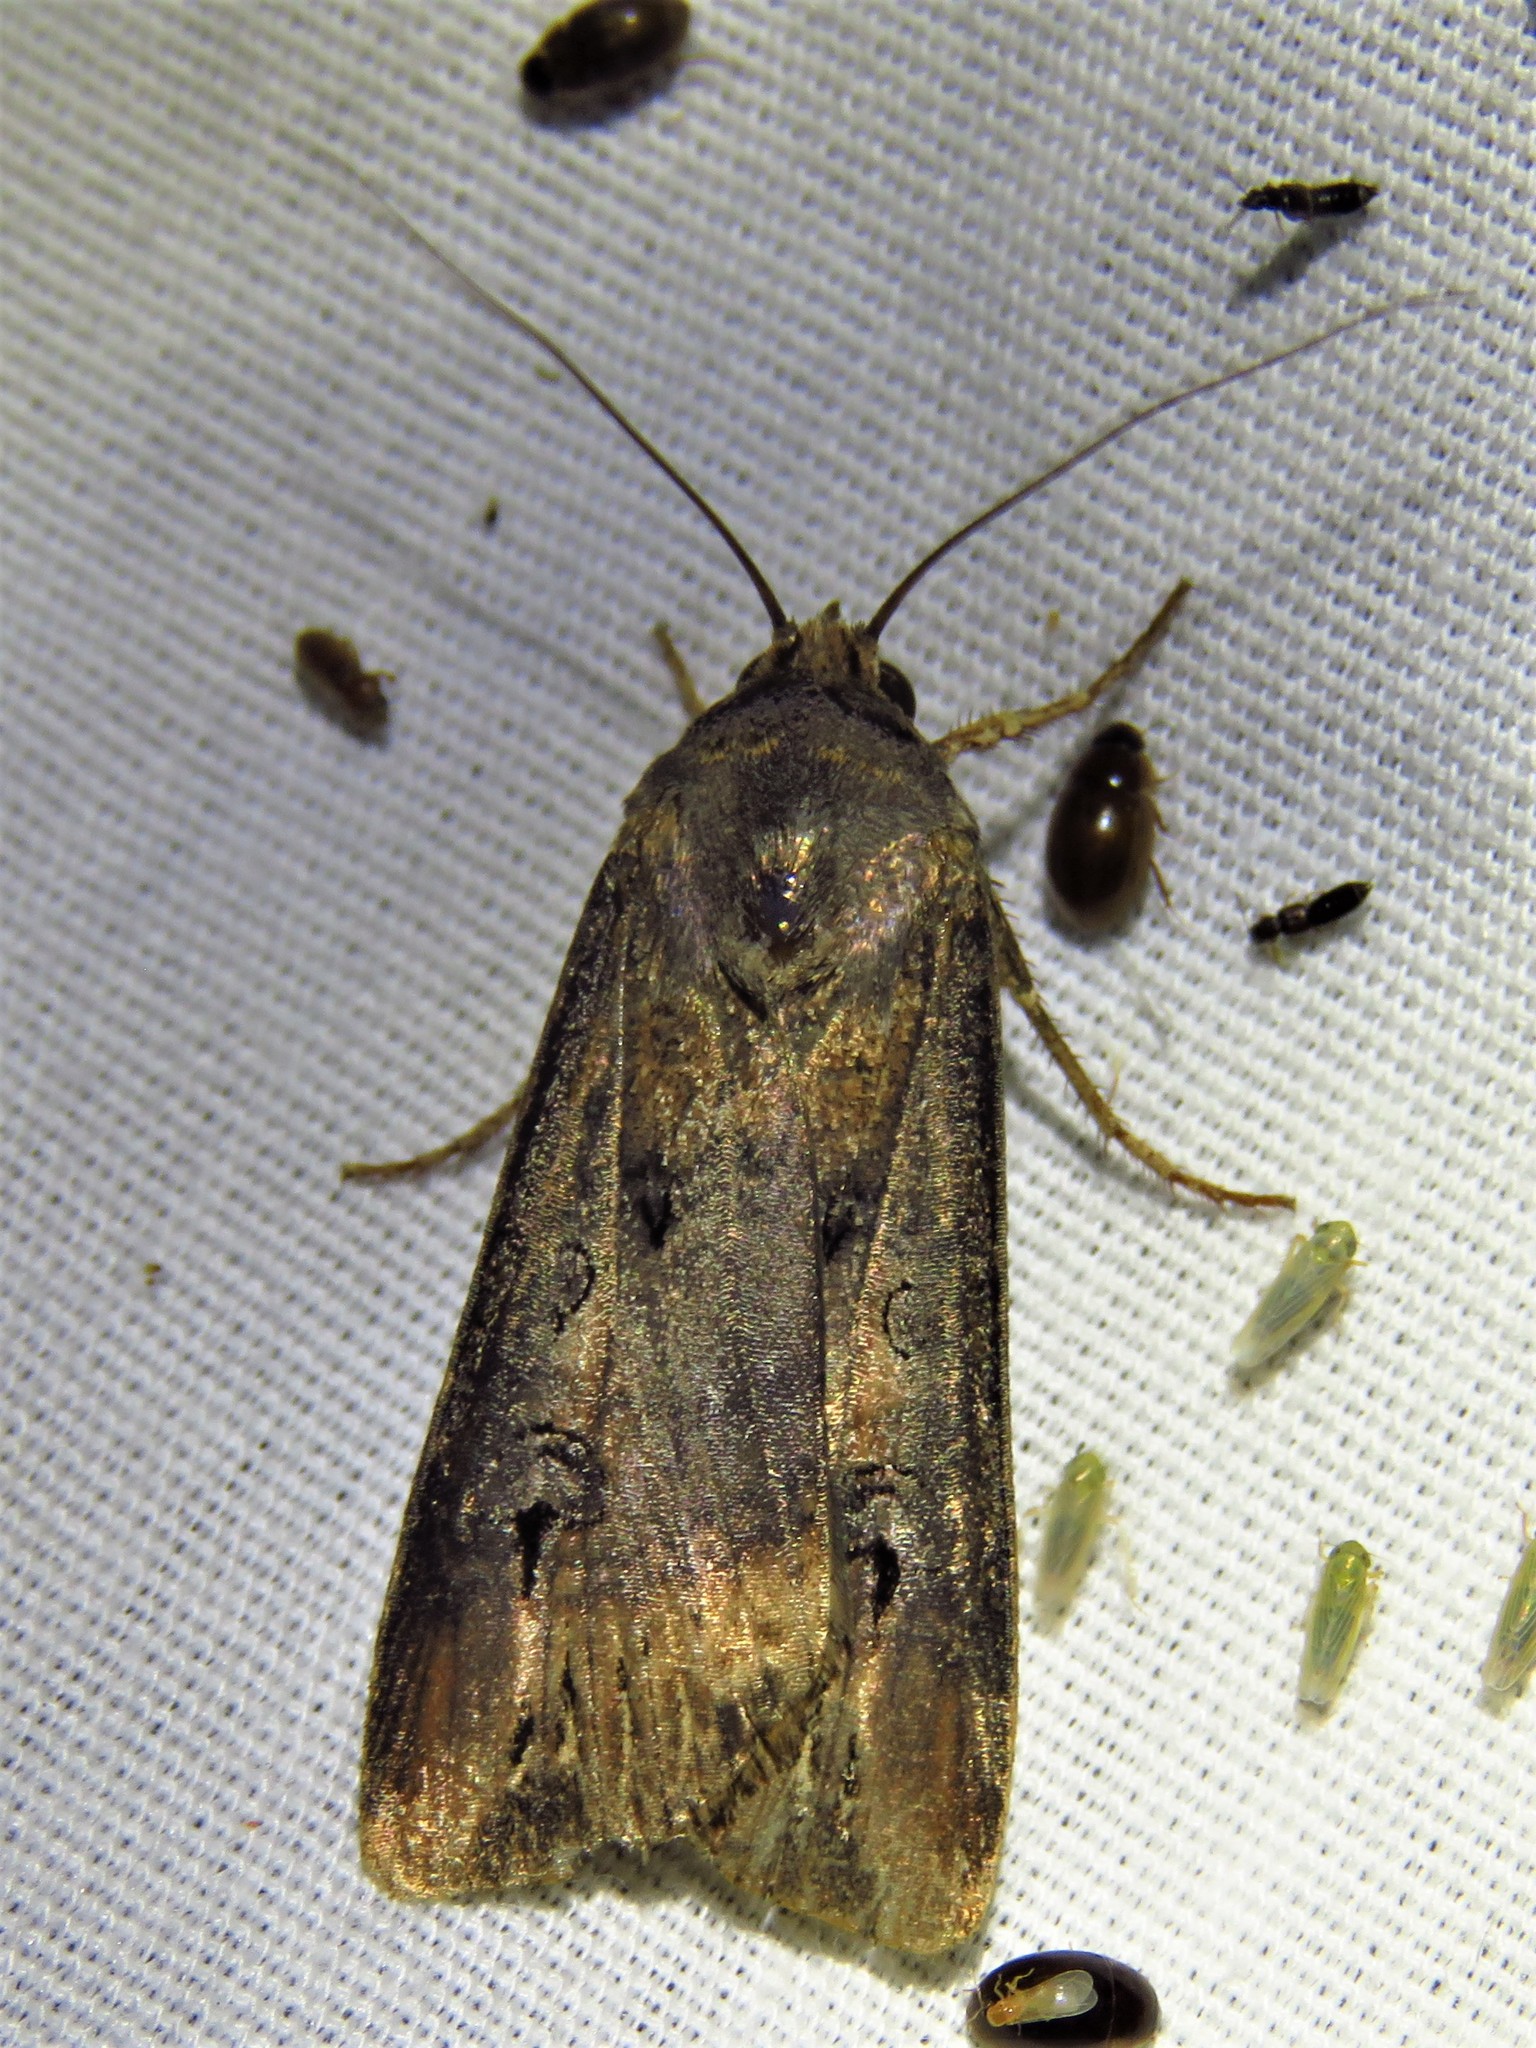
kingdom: Animalia
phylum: Arthropoda
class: Insecta
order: Lepidoptera
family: Noctuidae
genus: Agrotis
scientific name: Agrotis ipsilon
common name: Dark sword-grass
